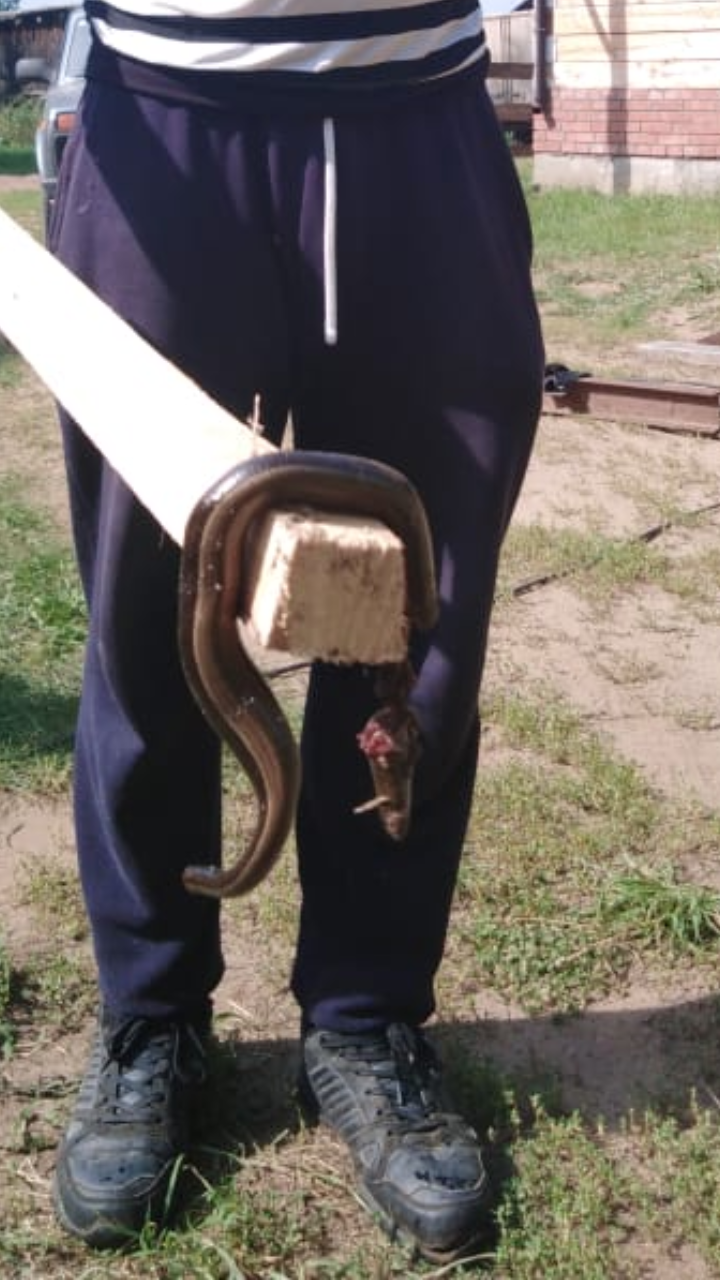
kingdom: Animalia
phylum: Chordata
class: Squamata
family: Anguidae
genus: Anguis
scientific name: Anguis
